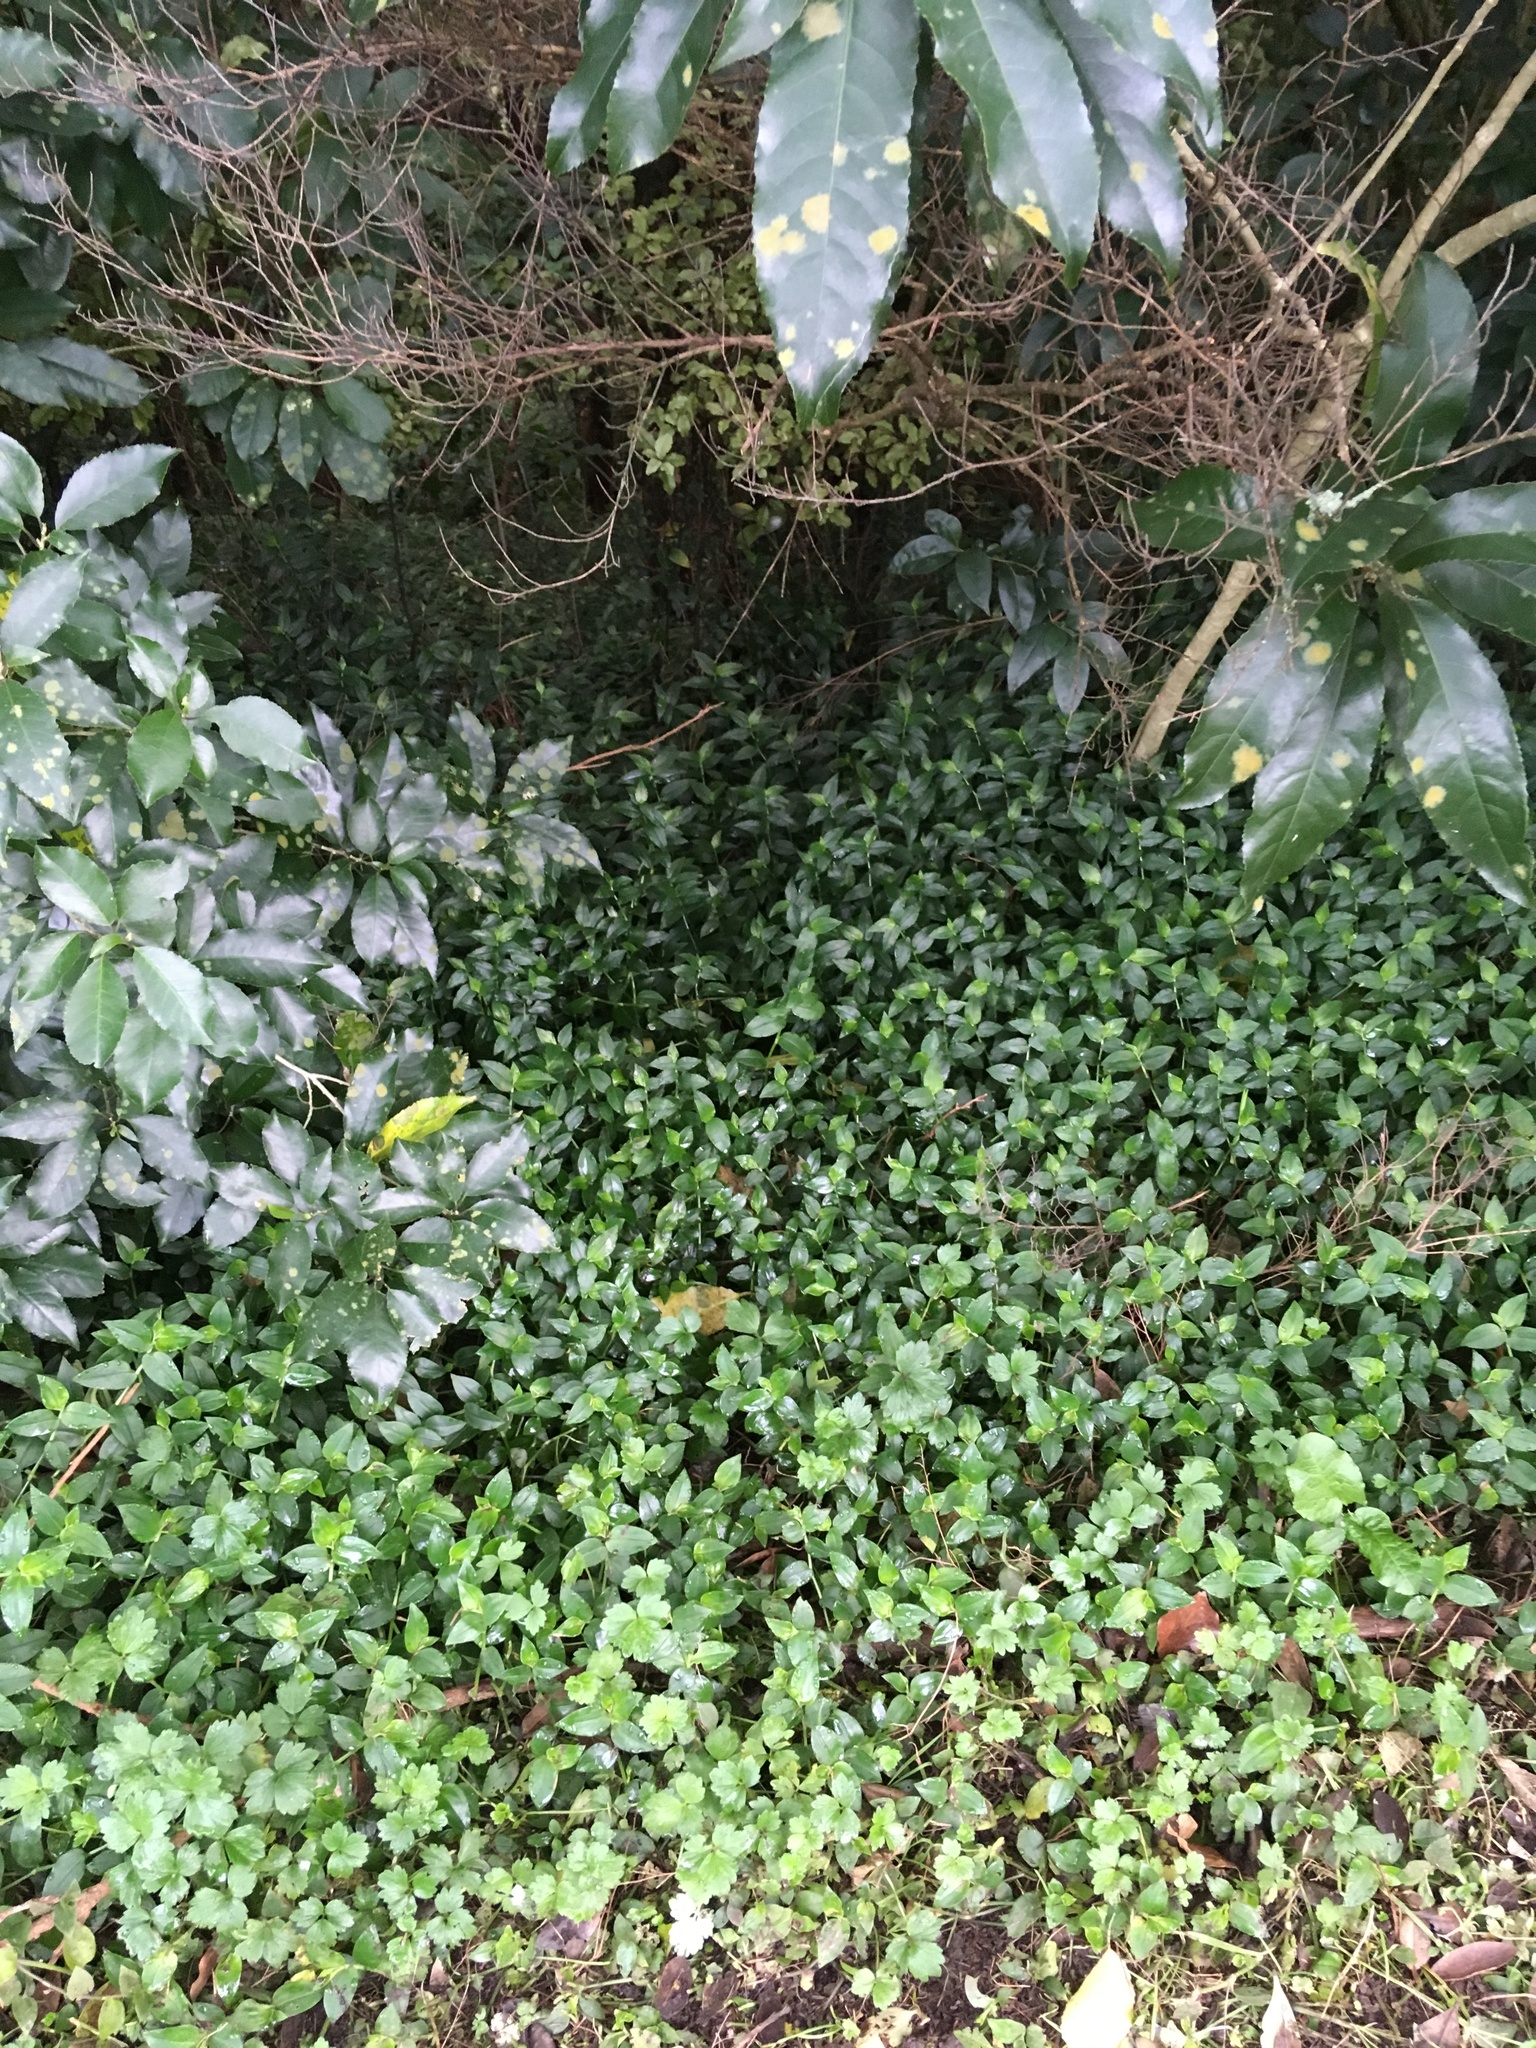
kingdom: Plantae
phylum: Tracheophyta
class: Liliopsida
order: Commelinales
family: Commelinaceae
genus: Tradescantia
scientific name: Tradescantia fluminensis
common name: Wandering-jew
